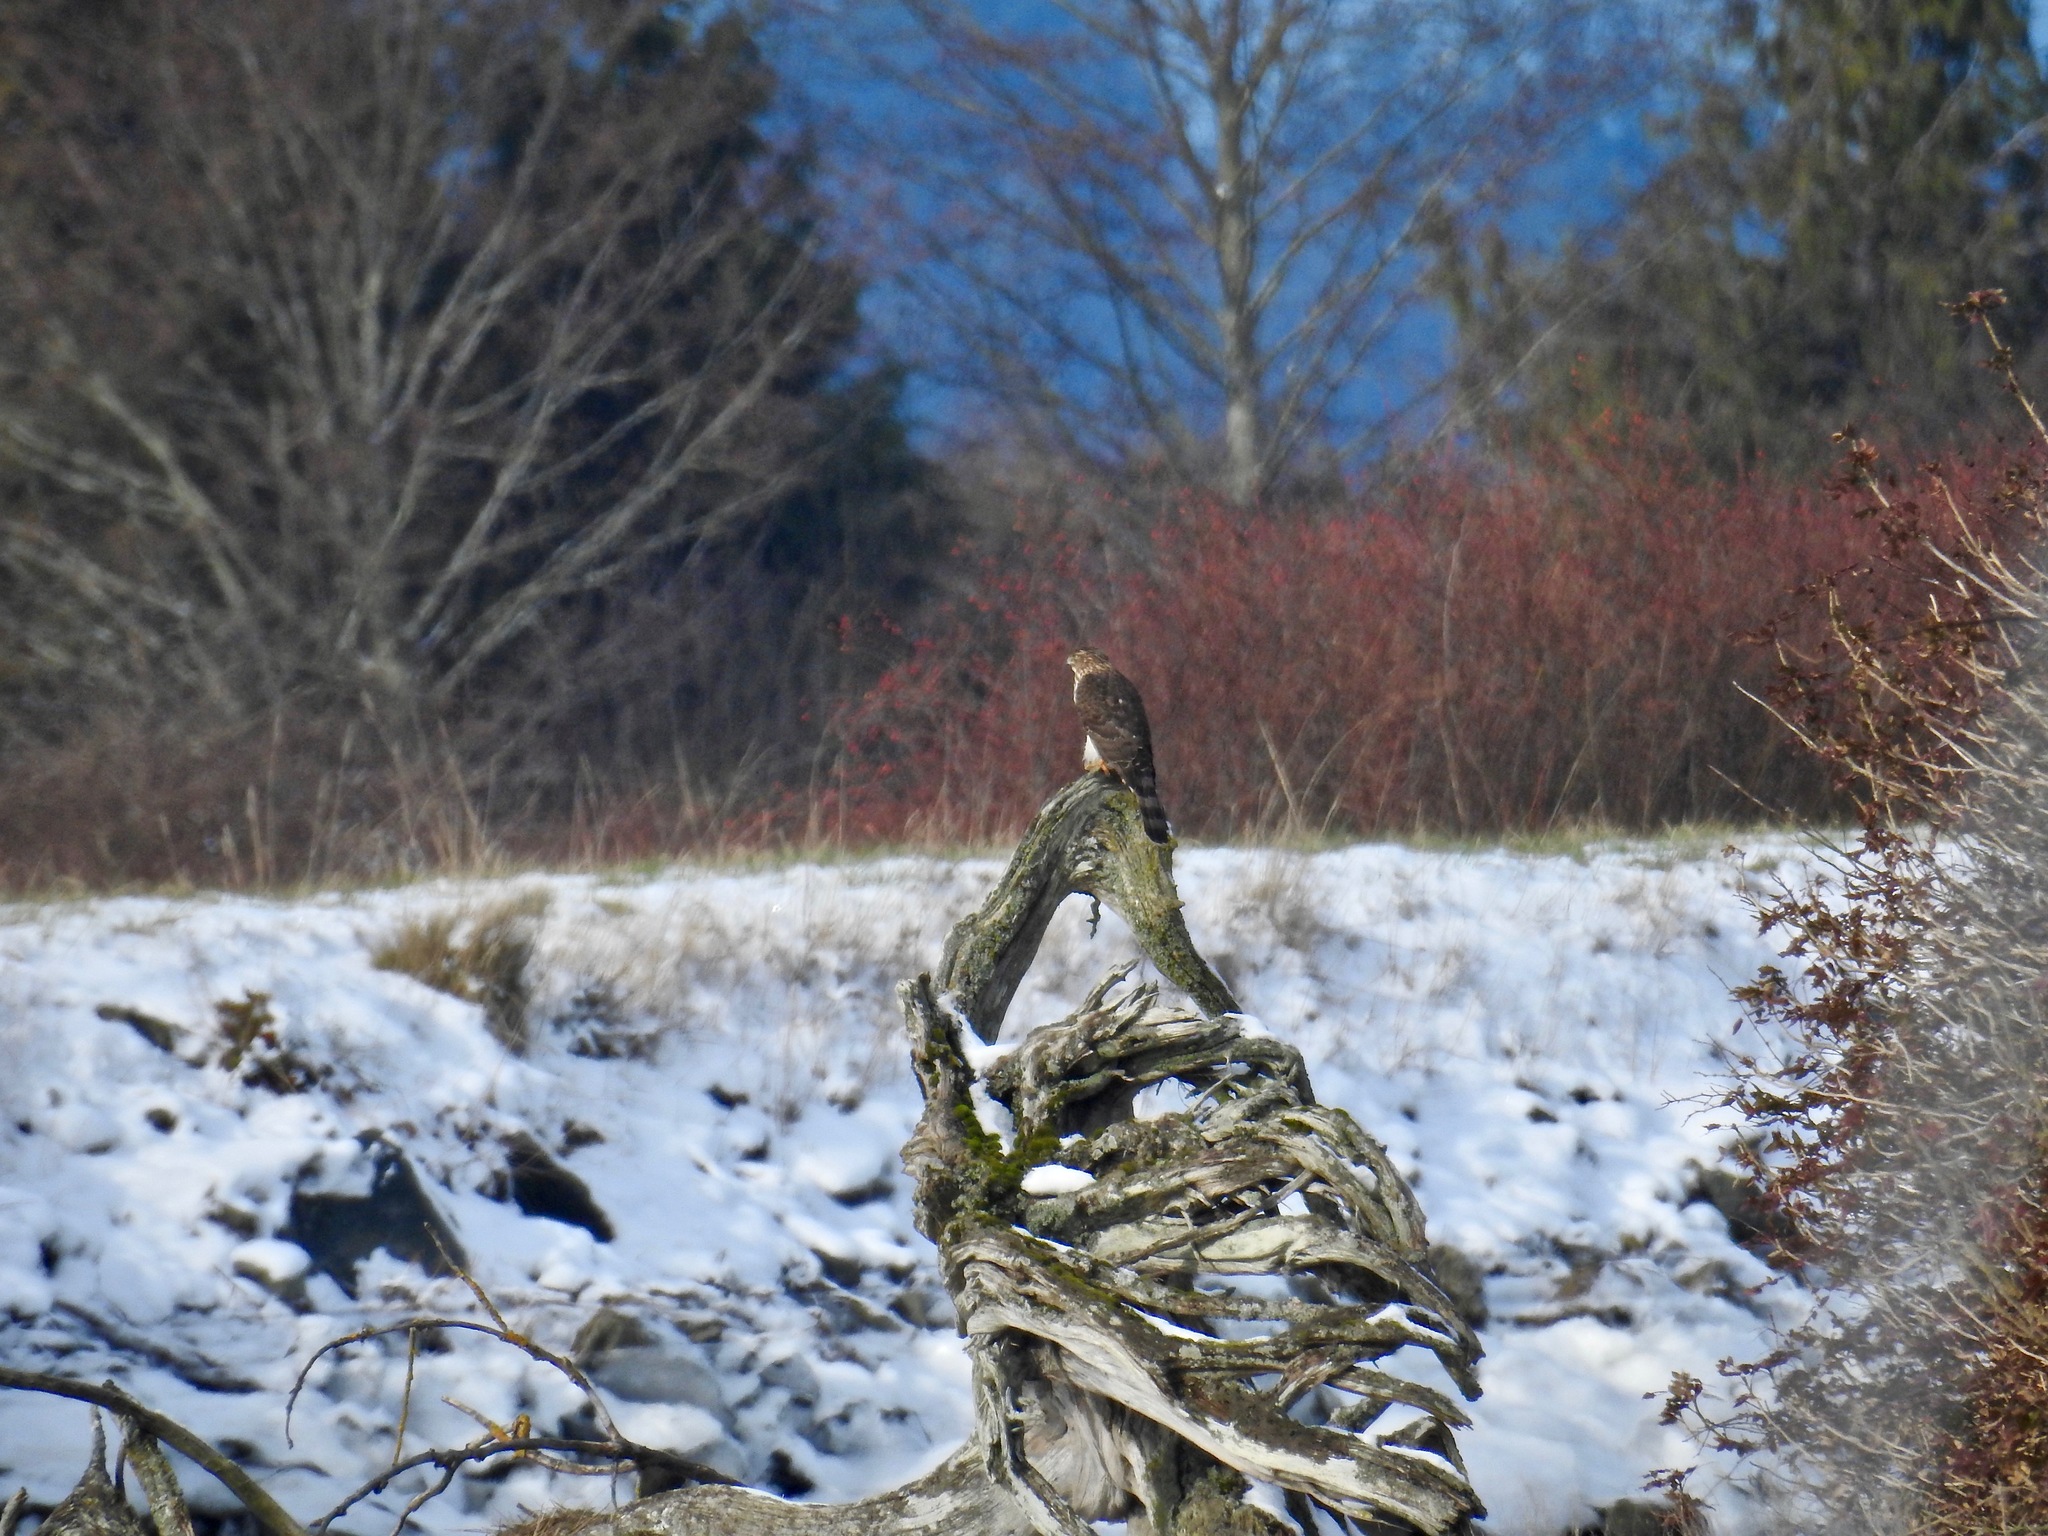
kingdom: Animalia
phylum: Chordata
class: Aves
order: Accipitriformes
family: Accipitridae
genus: Accipiter
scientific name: Accipiter cooperii
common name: Cooper's hawk
